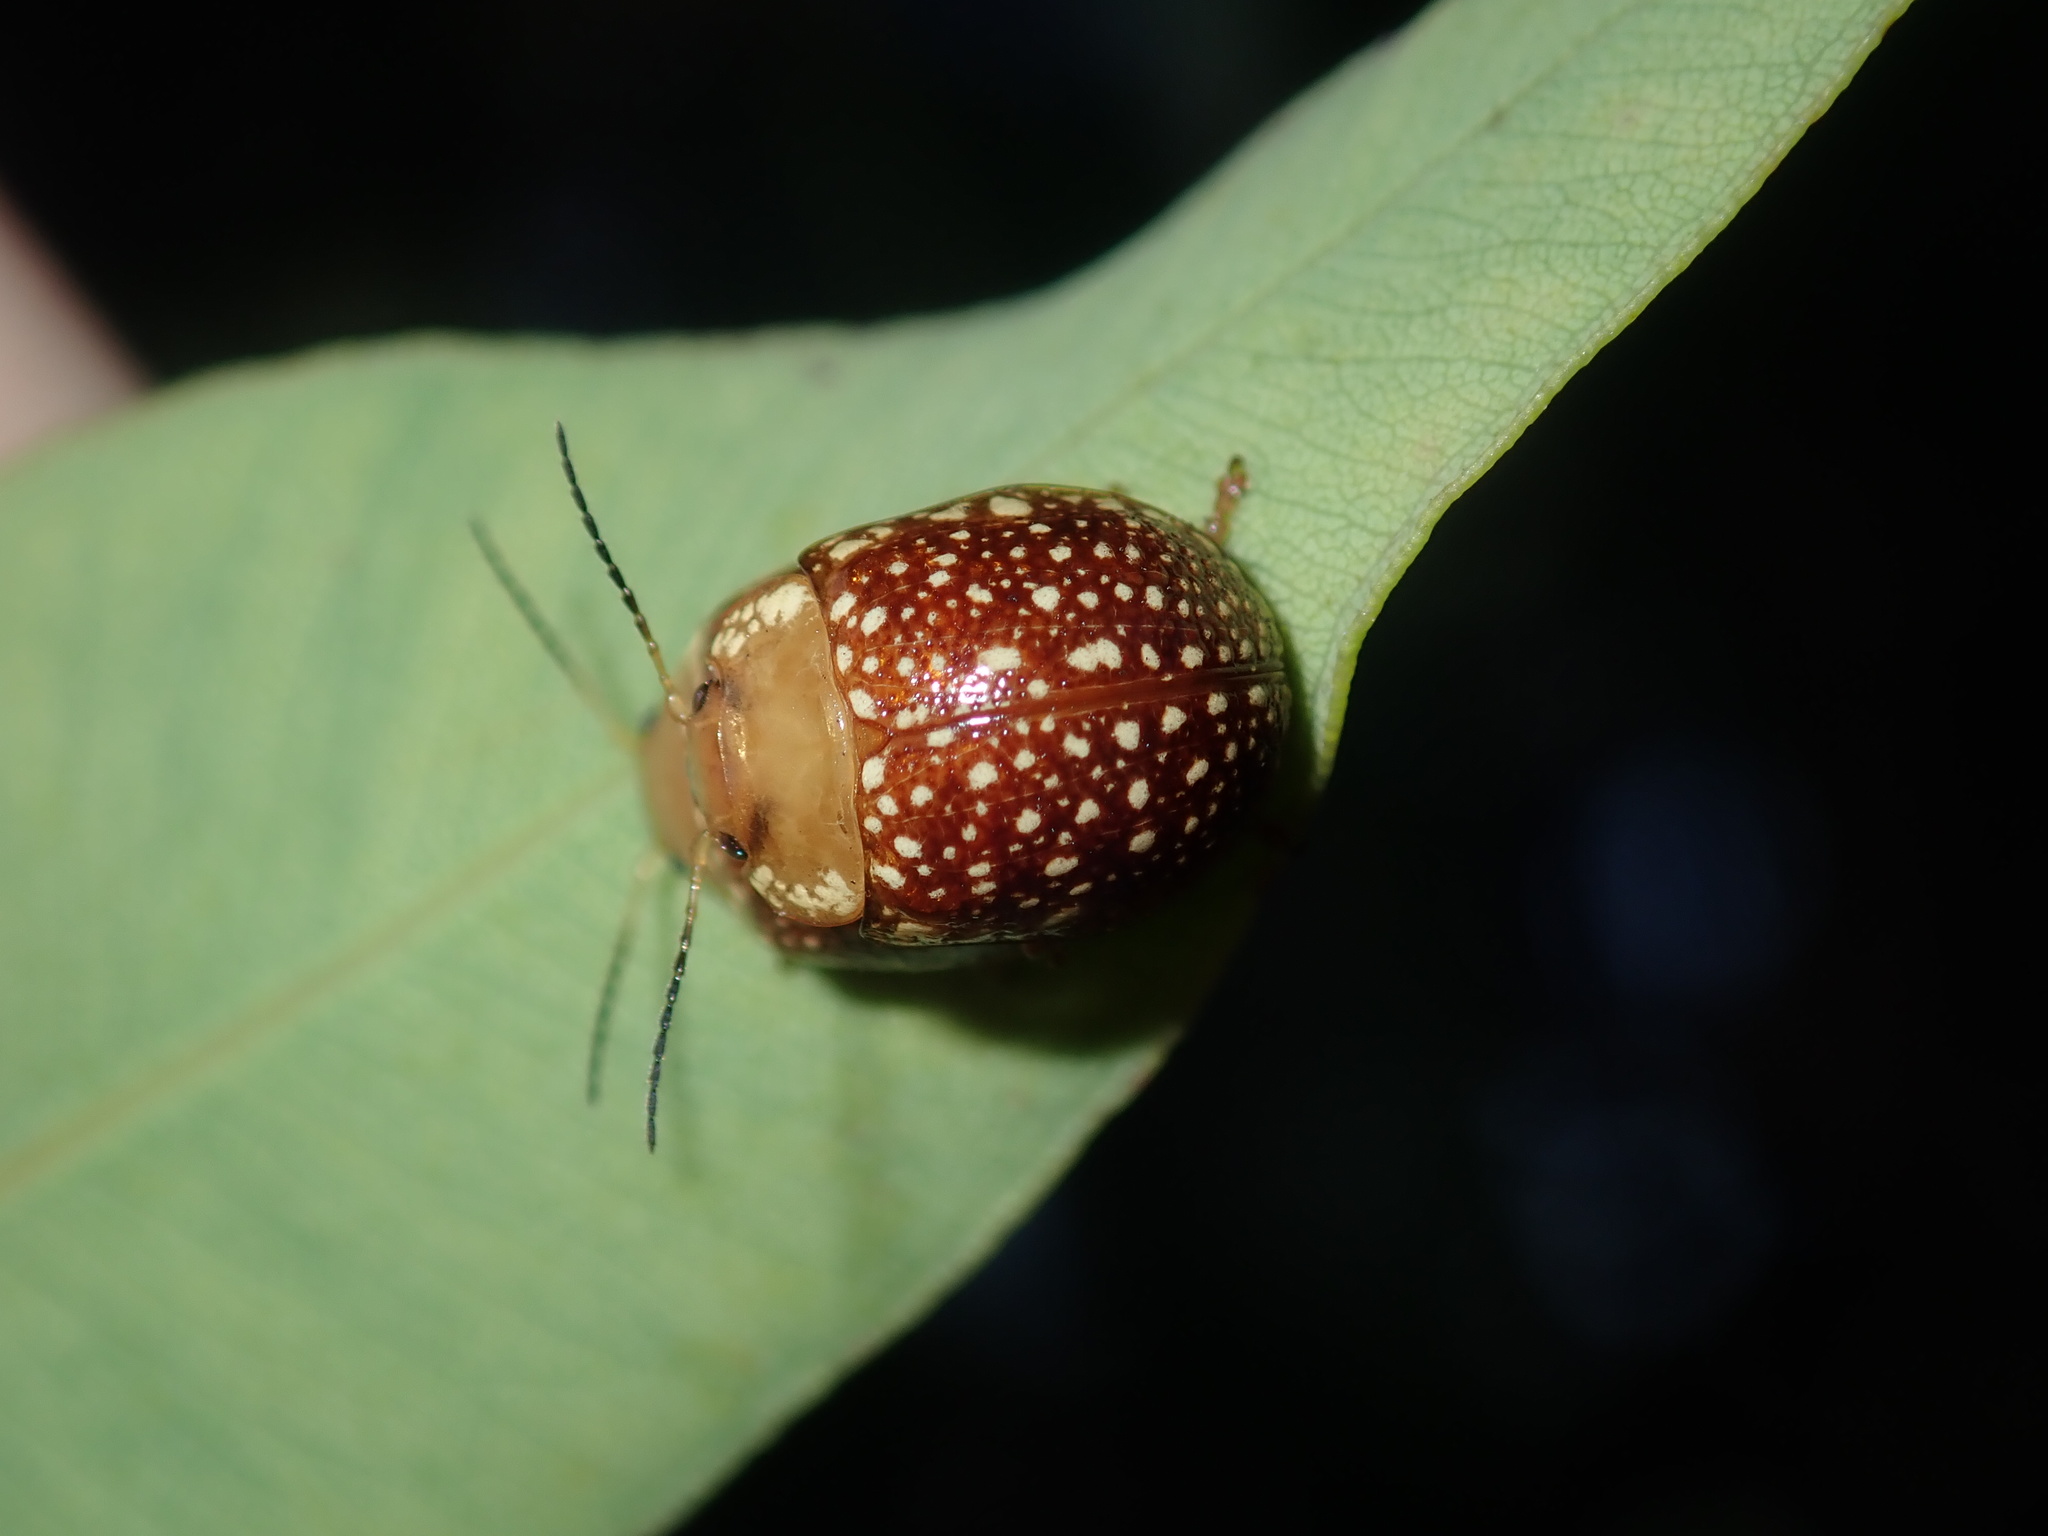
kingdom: Animalia
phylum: Arthropoda
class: Insecta
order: Coleoptera
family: Chrysomelidae
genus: Paropsis
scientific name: Paropsis
